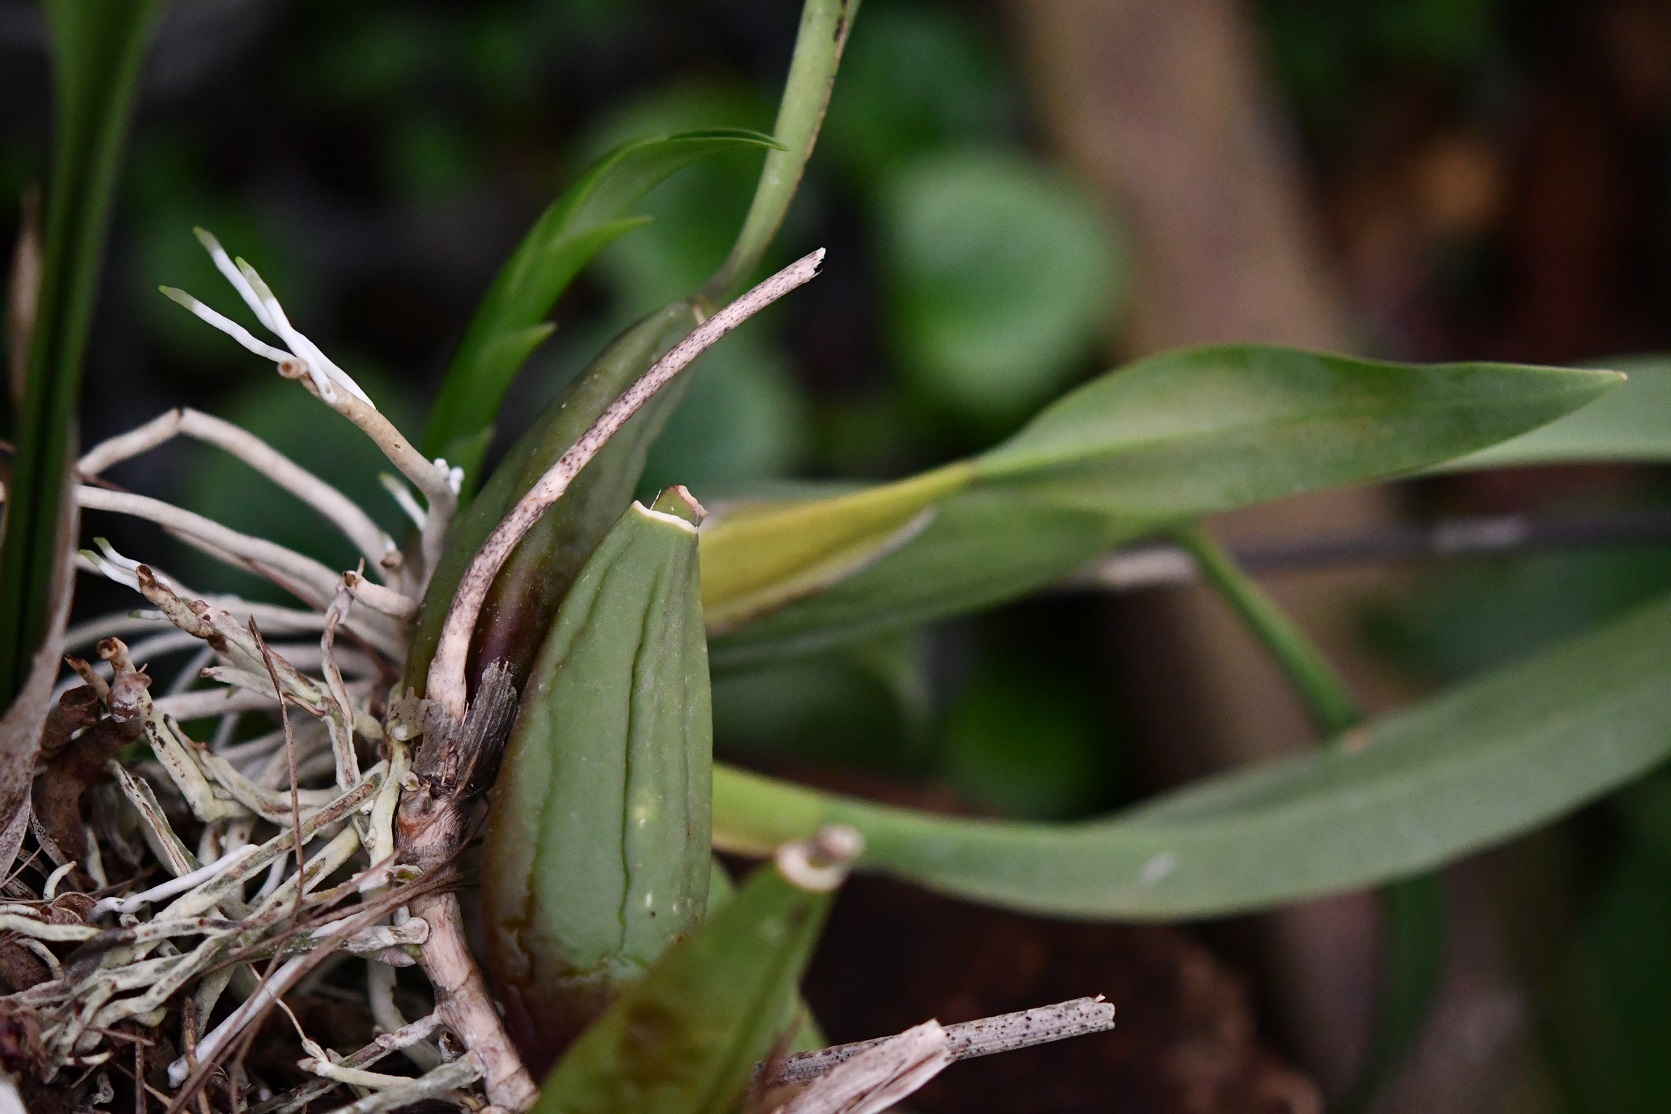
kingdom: Plantae
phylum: Tracheophyta
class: Liliopsida
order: Asparagales
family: Orchidaceae
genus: Brassia
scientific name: Brassia verrucosa
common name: Warty brassia
